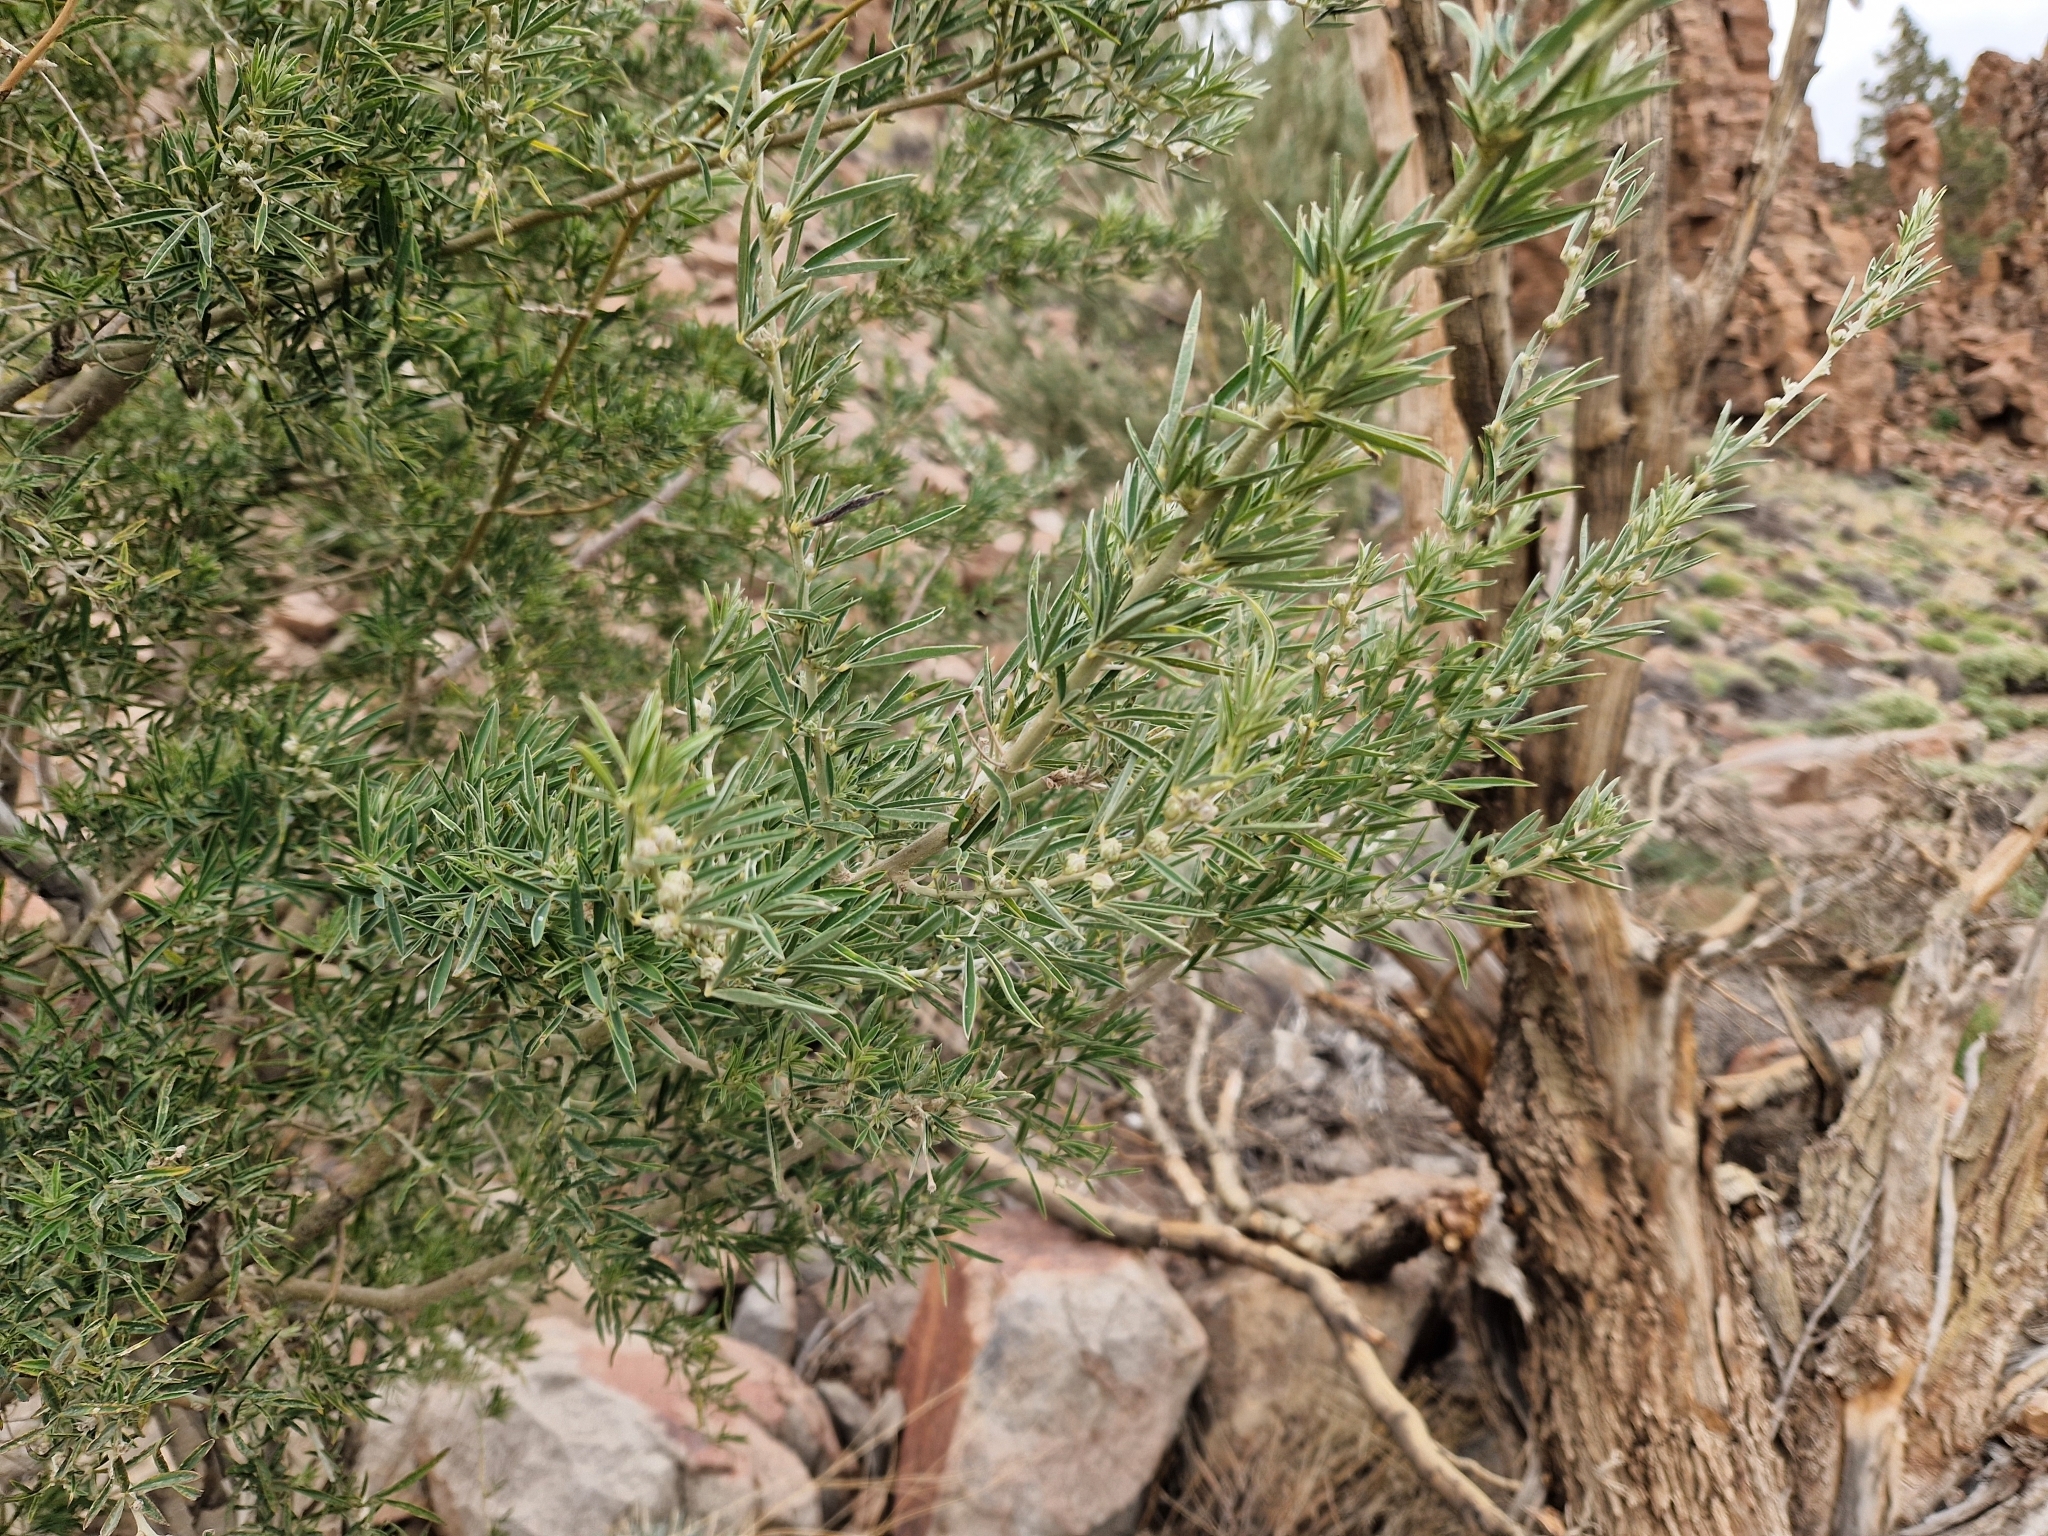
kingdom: Plantae
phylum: Tracheophyta
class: Magnoliopsida
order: Fabales
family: Fabaceae
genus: Chamaecytisus
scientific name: Chamaecytisus prolifer
